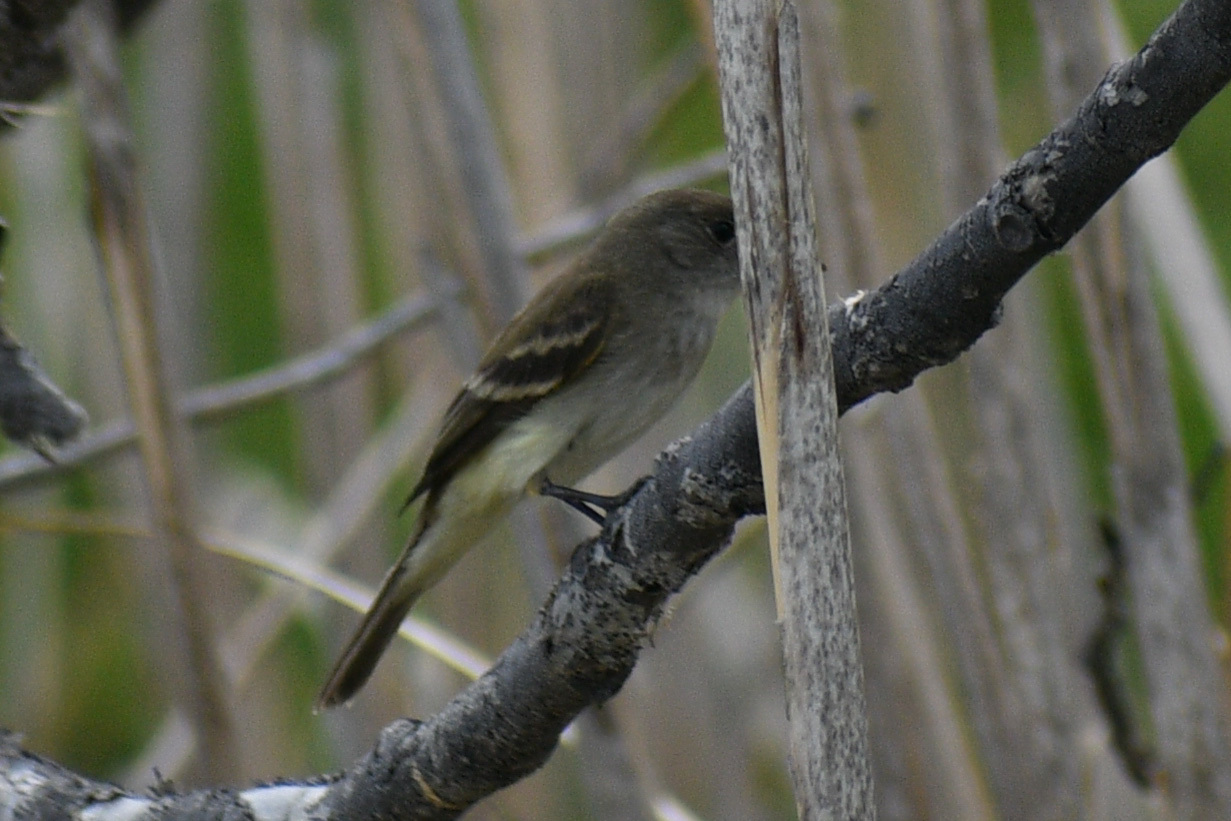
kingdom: Animalia
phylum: Chordata
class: Aves
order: Passeriformes
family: Tyrannidae
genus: Empidonax
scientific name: Empidonax traillii
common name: Willow flycatcher
